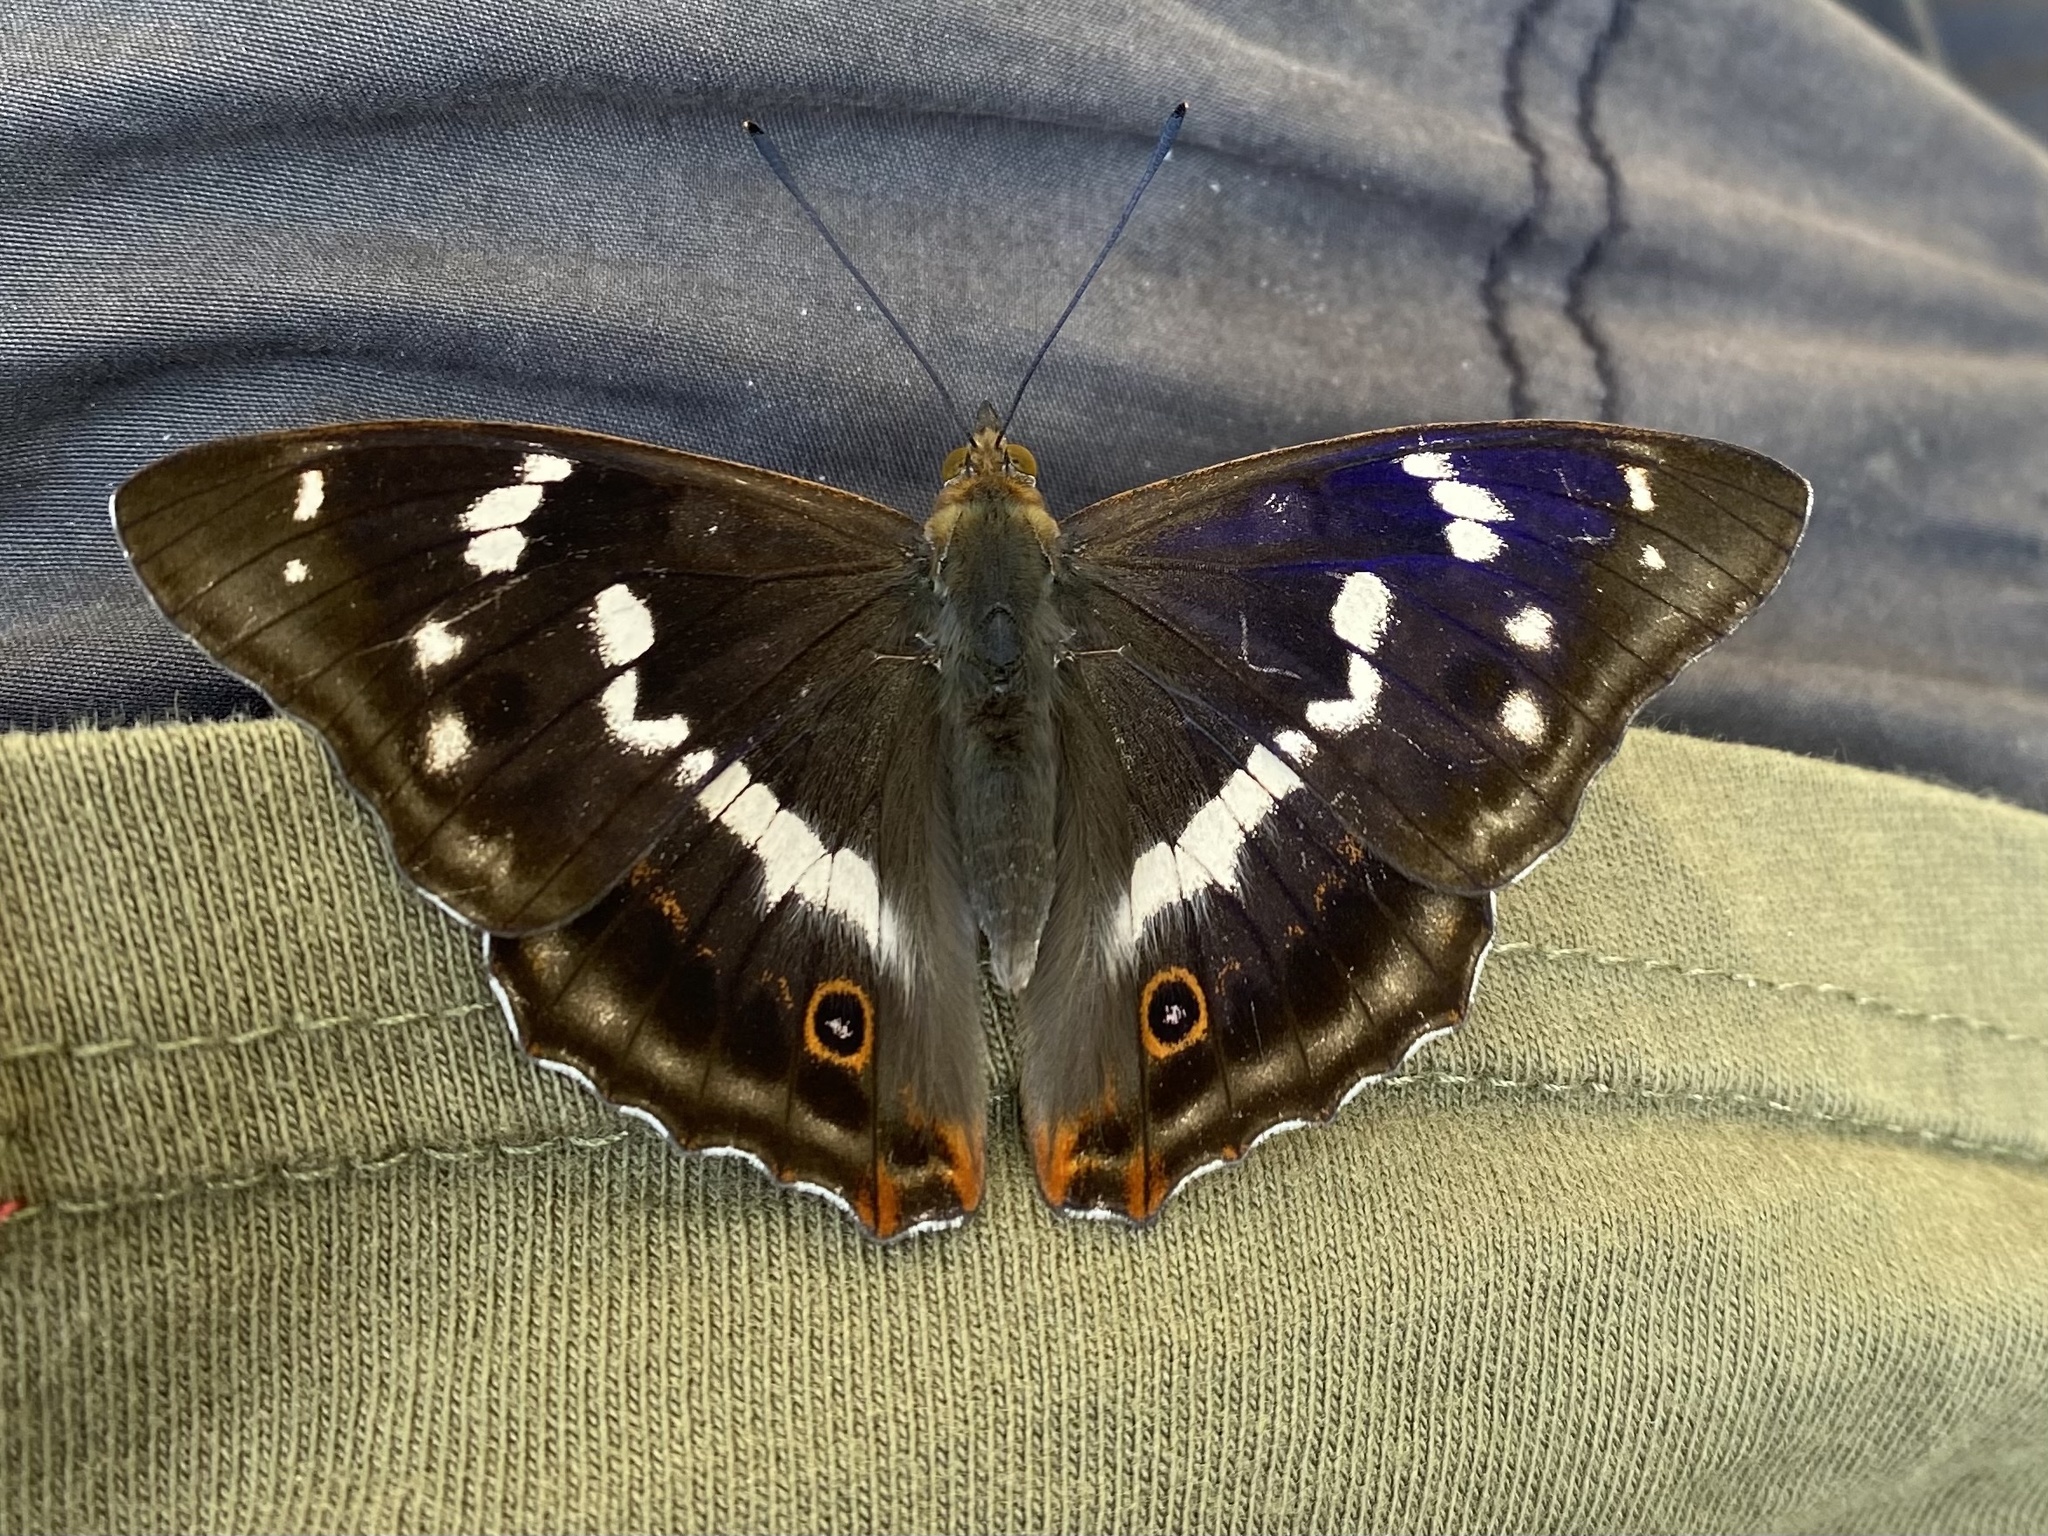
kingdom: Animalia
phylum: Arthropoda
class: Insecta
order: Lepidoptera
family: Nymphalidae
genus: Apatura
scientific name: Apatura iris
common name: Purple emperor
